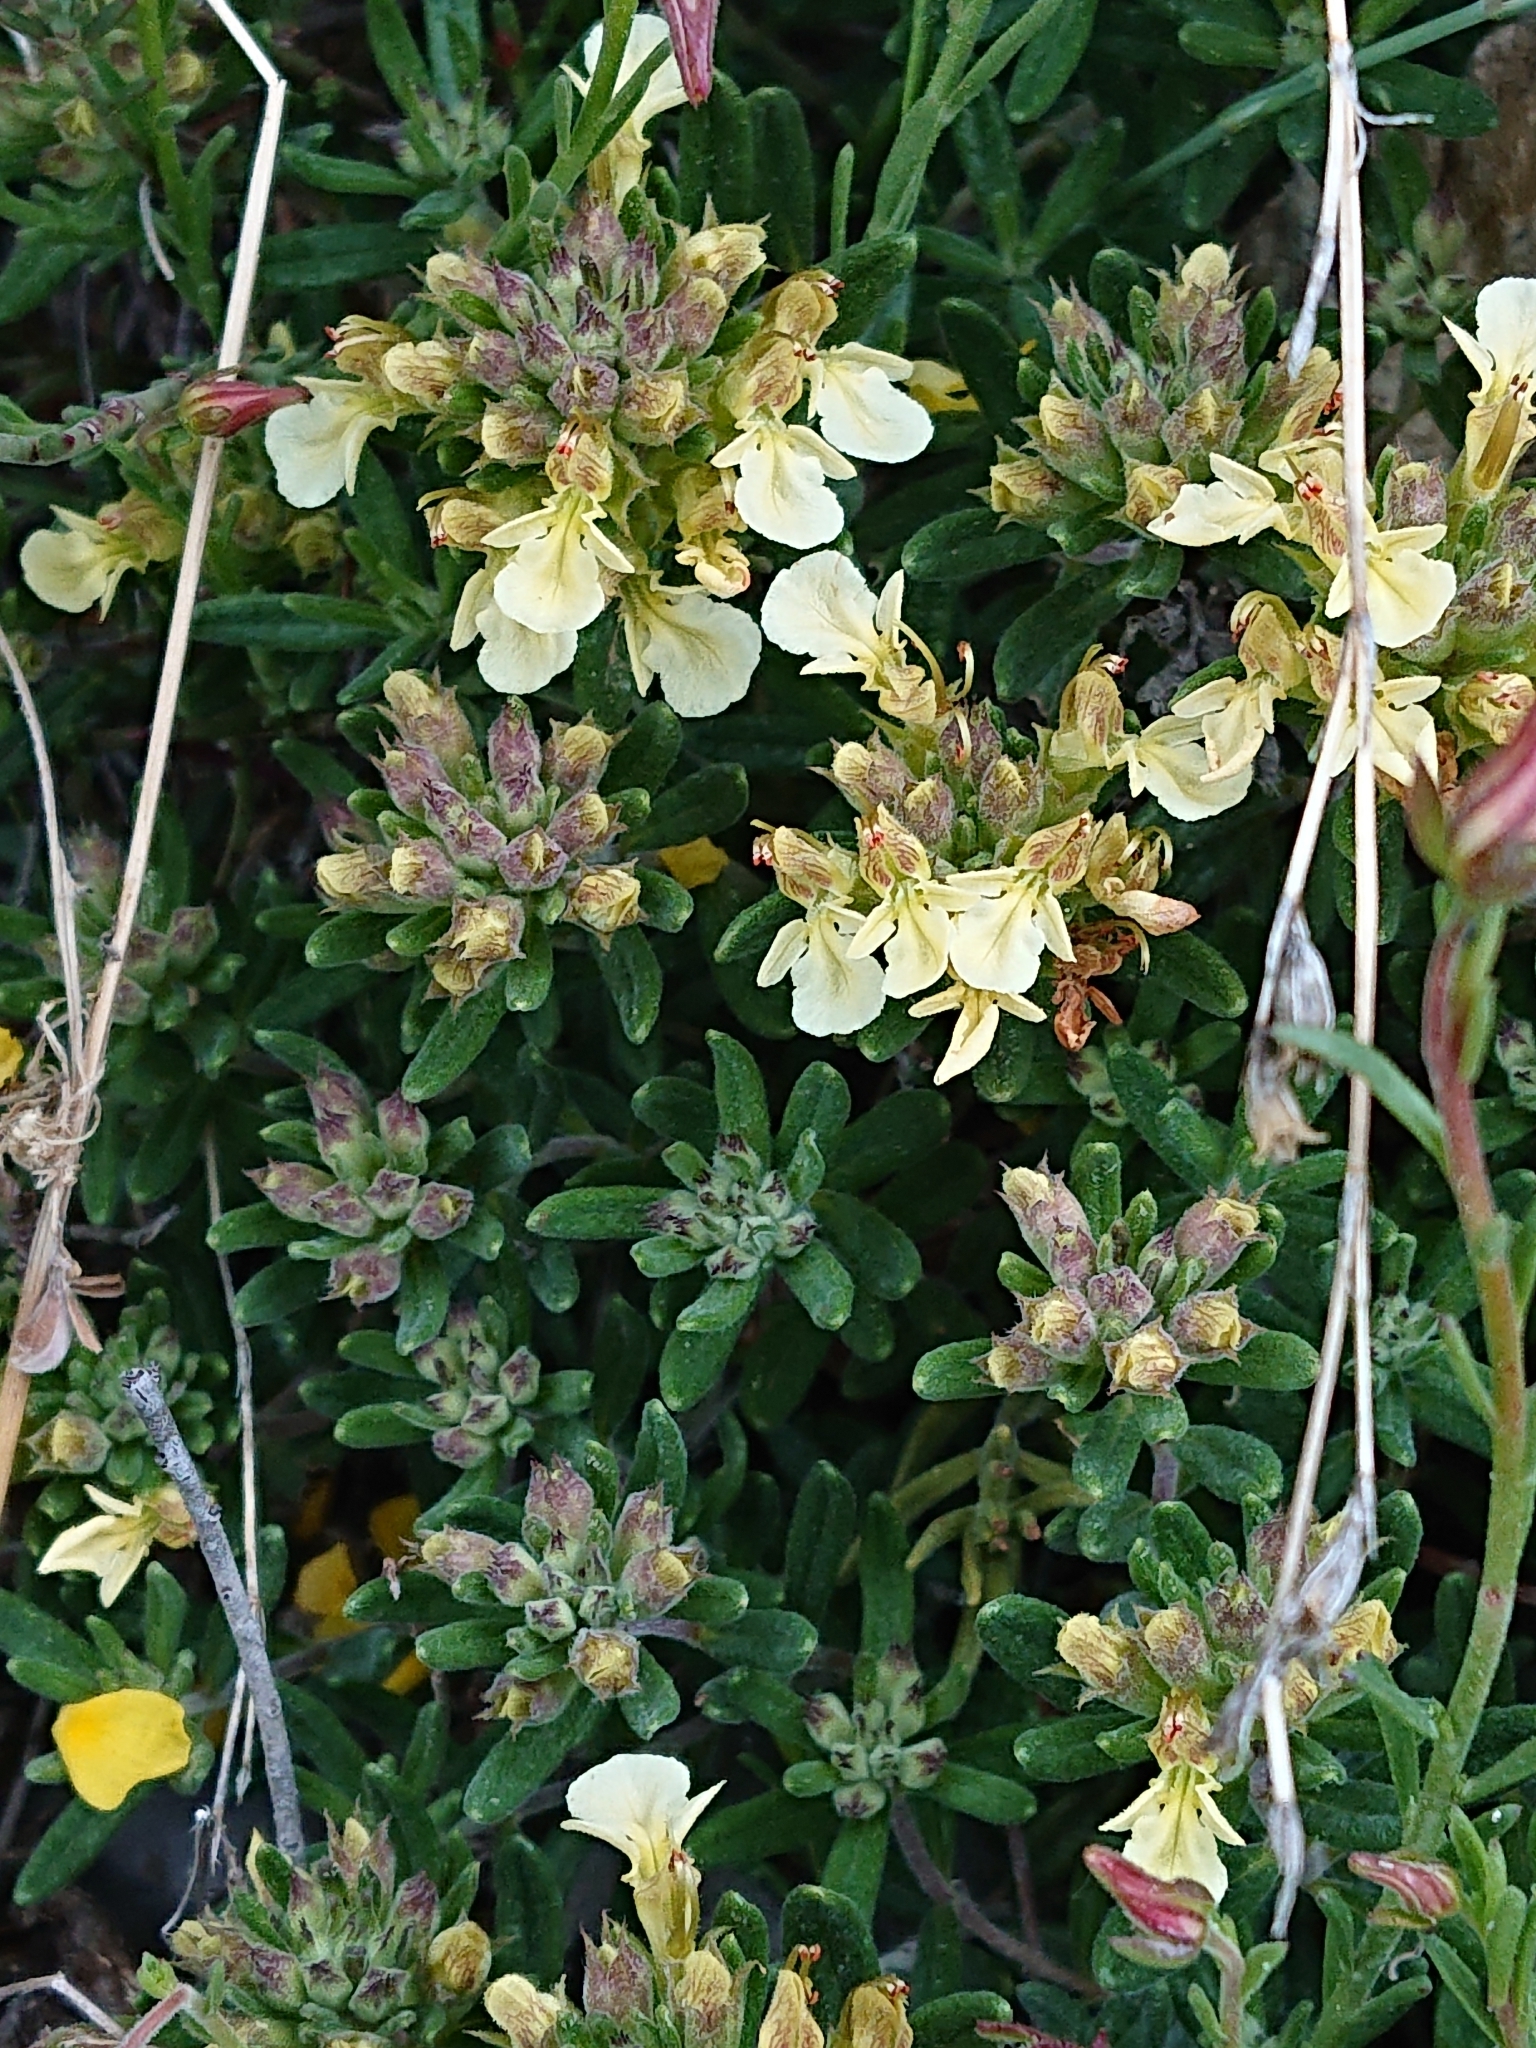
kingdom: Plantae
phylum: Tracheophyta
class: Magnoliopsida
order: Lamiales
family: Lamiaceae
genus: Teucrium
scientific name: Teucrium montanum
